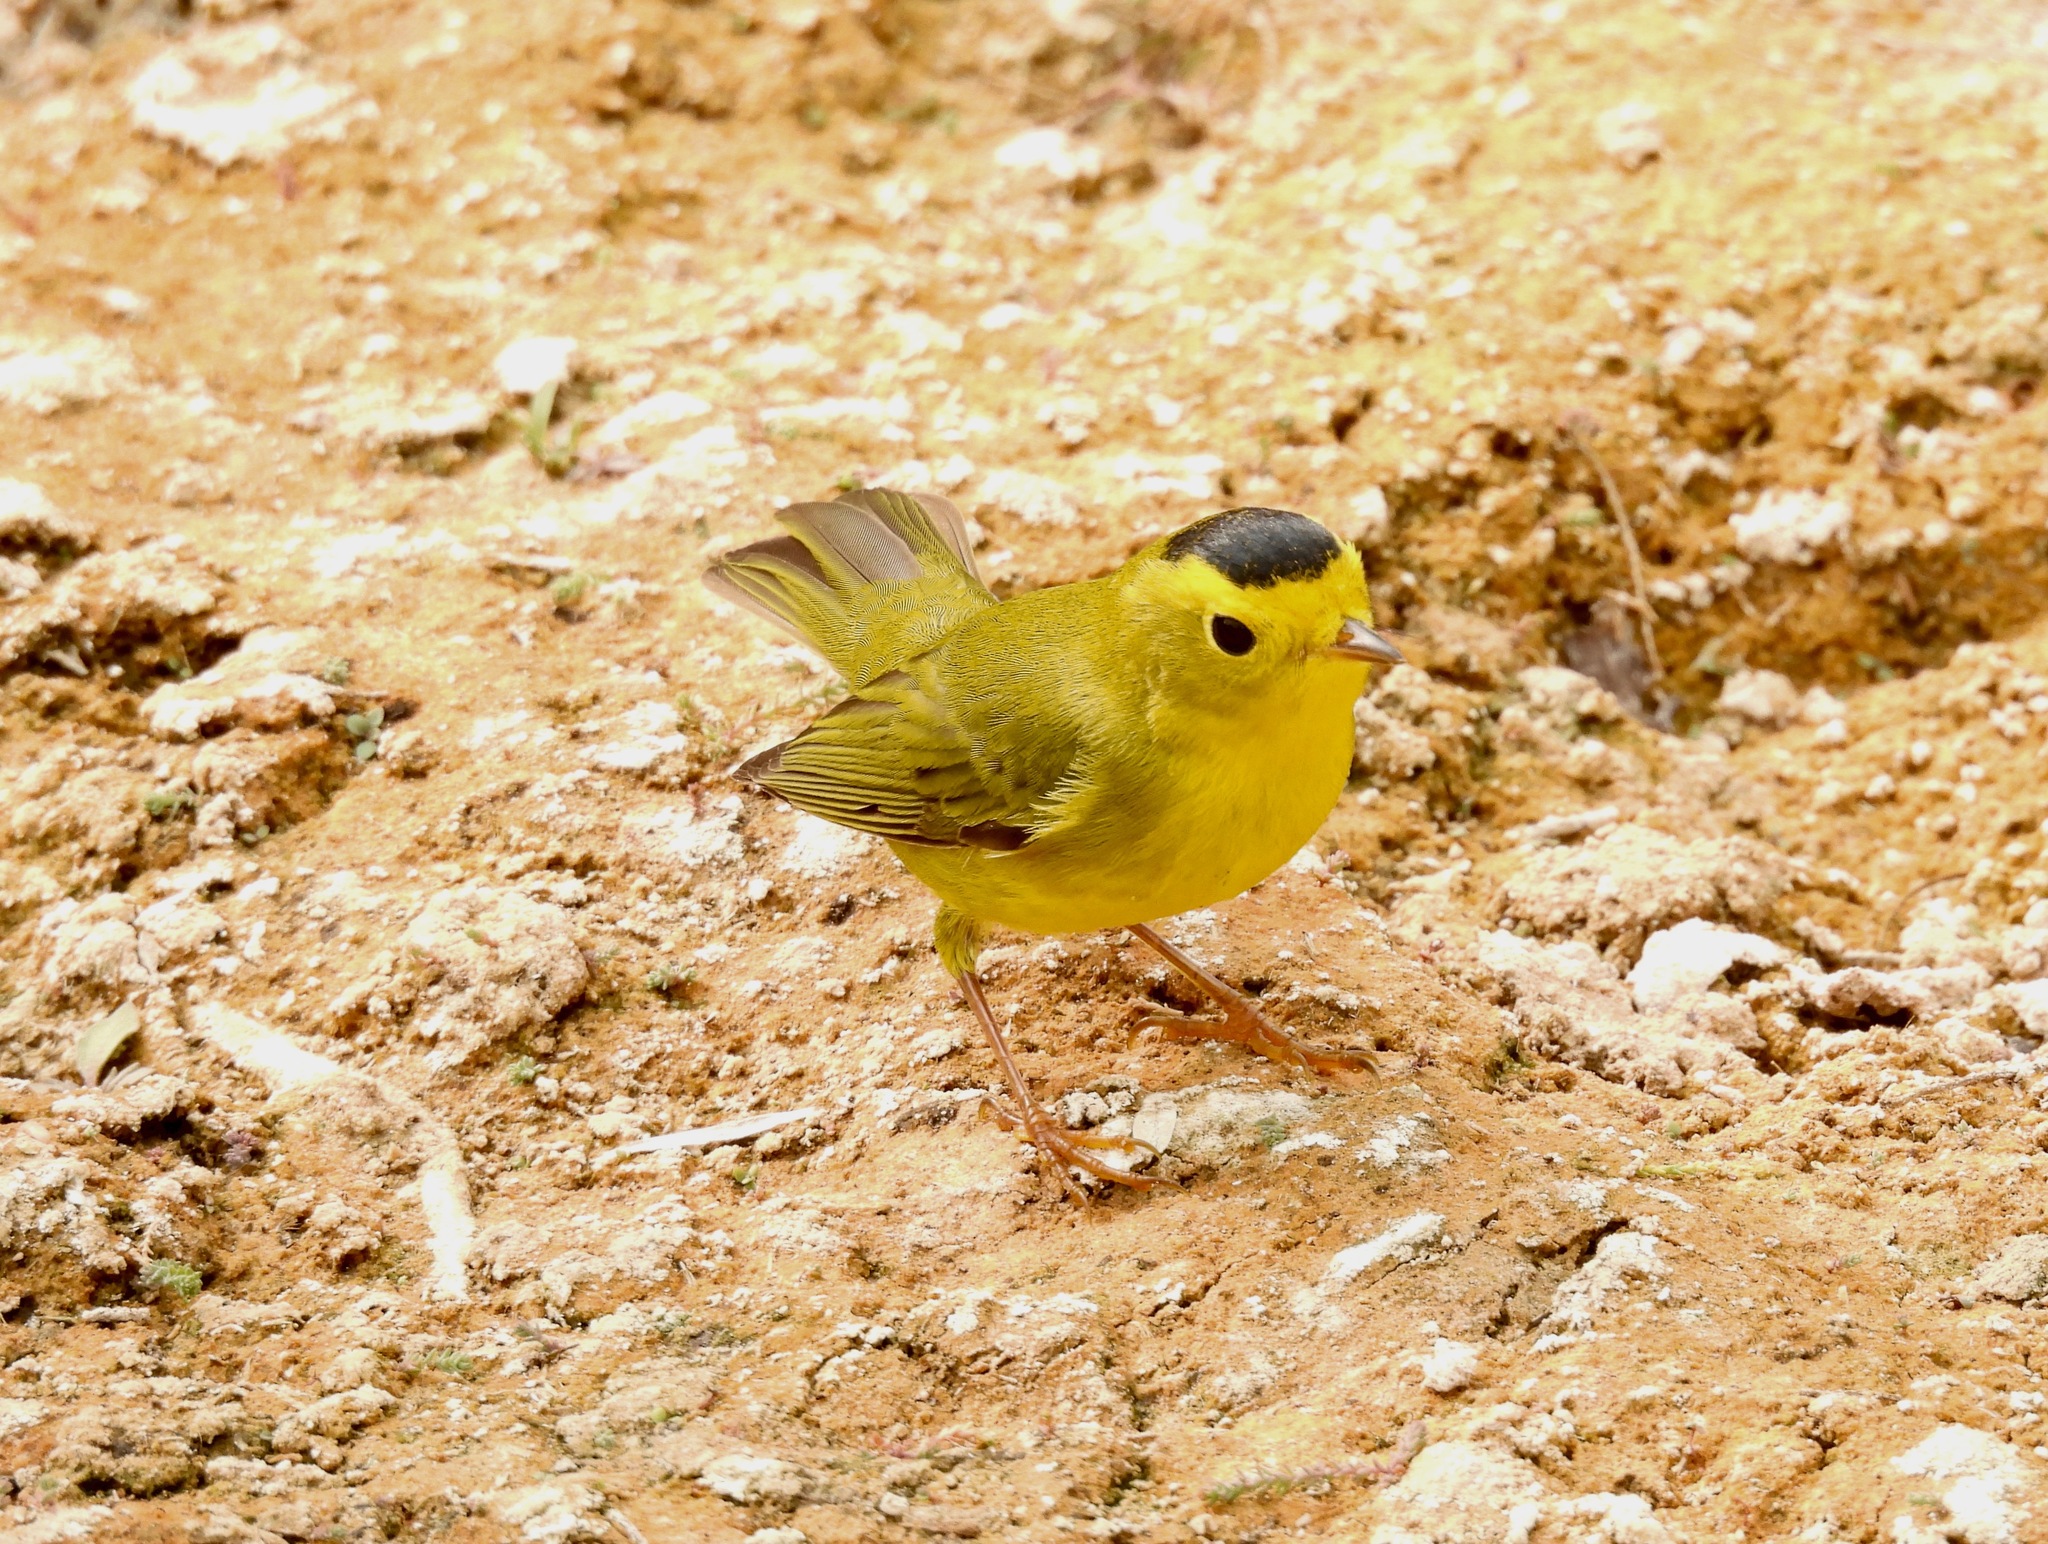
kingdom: Animalia
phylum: Chordata
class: Aves
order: Passeriformes
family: Parulidae
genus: Cardellina
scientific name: Cardellina pusilla
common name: Wilson's warbler
